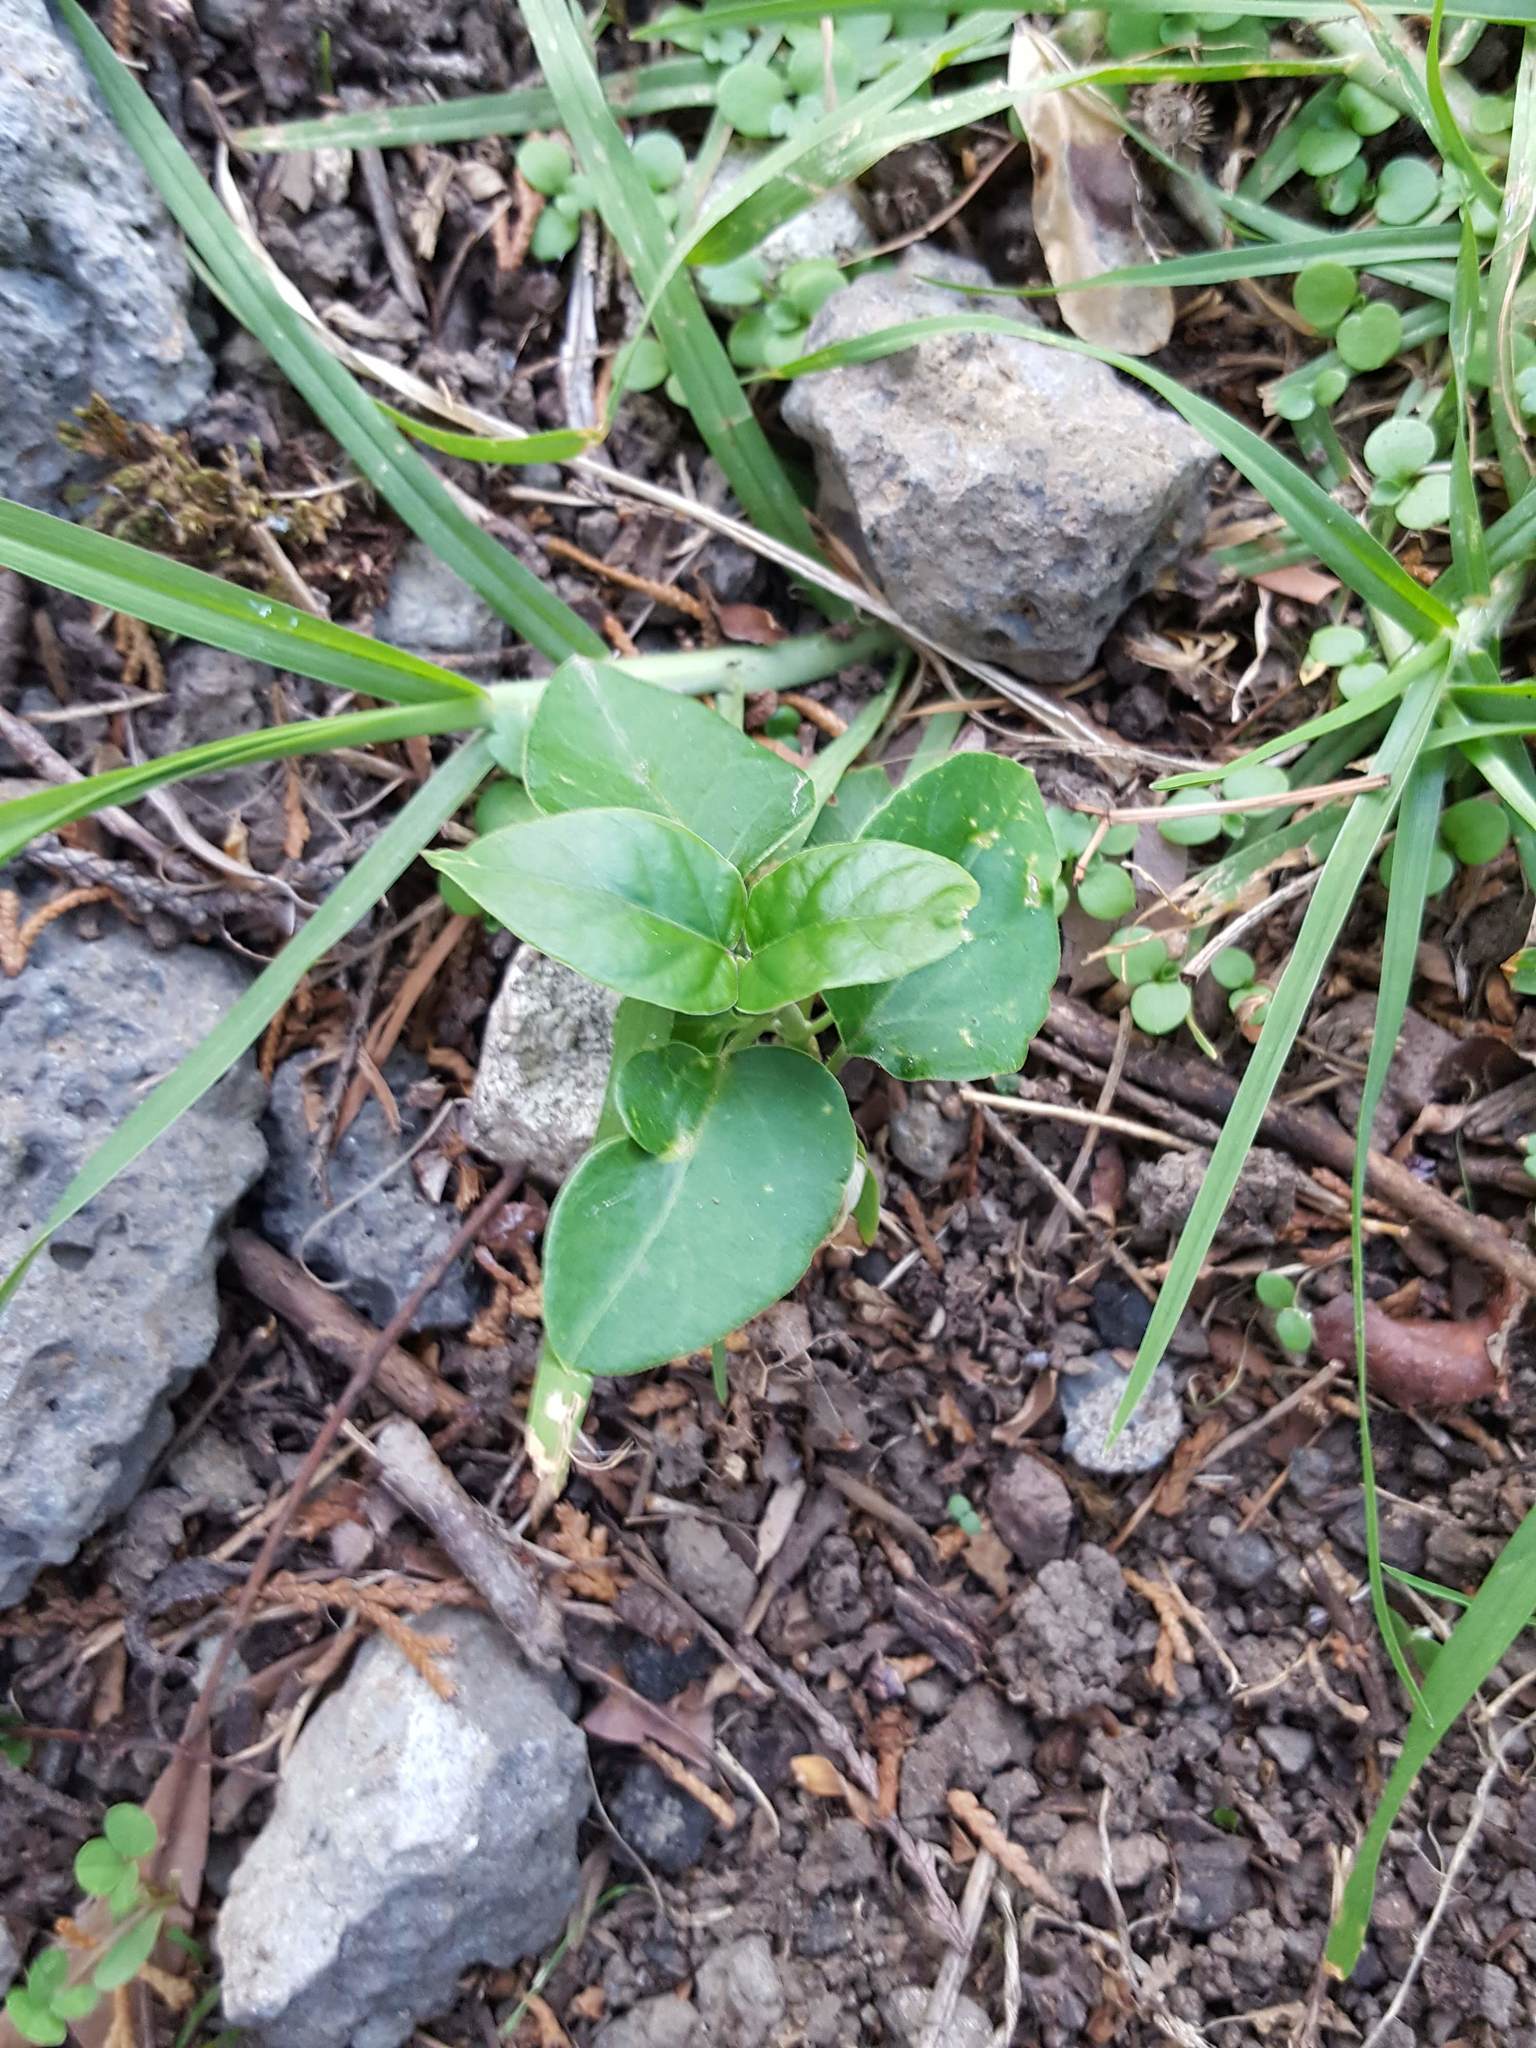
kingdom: Plantae
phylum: Tracheophyta
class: Magnoliopsida
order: Gentianales
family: Apocynaceae
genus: Araujia
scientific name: Araujia sericifera
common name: White bladderflower
